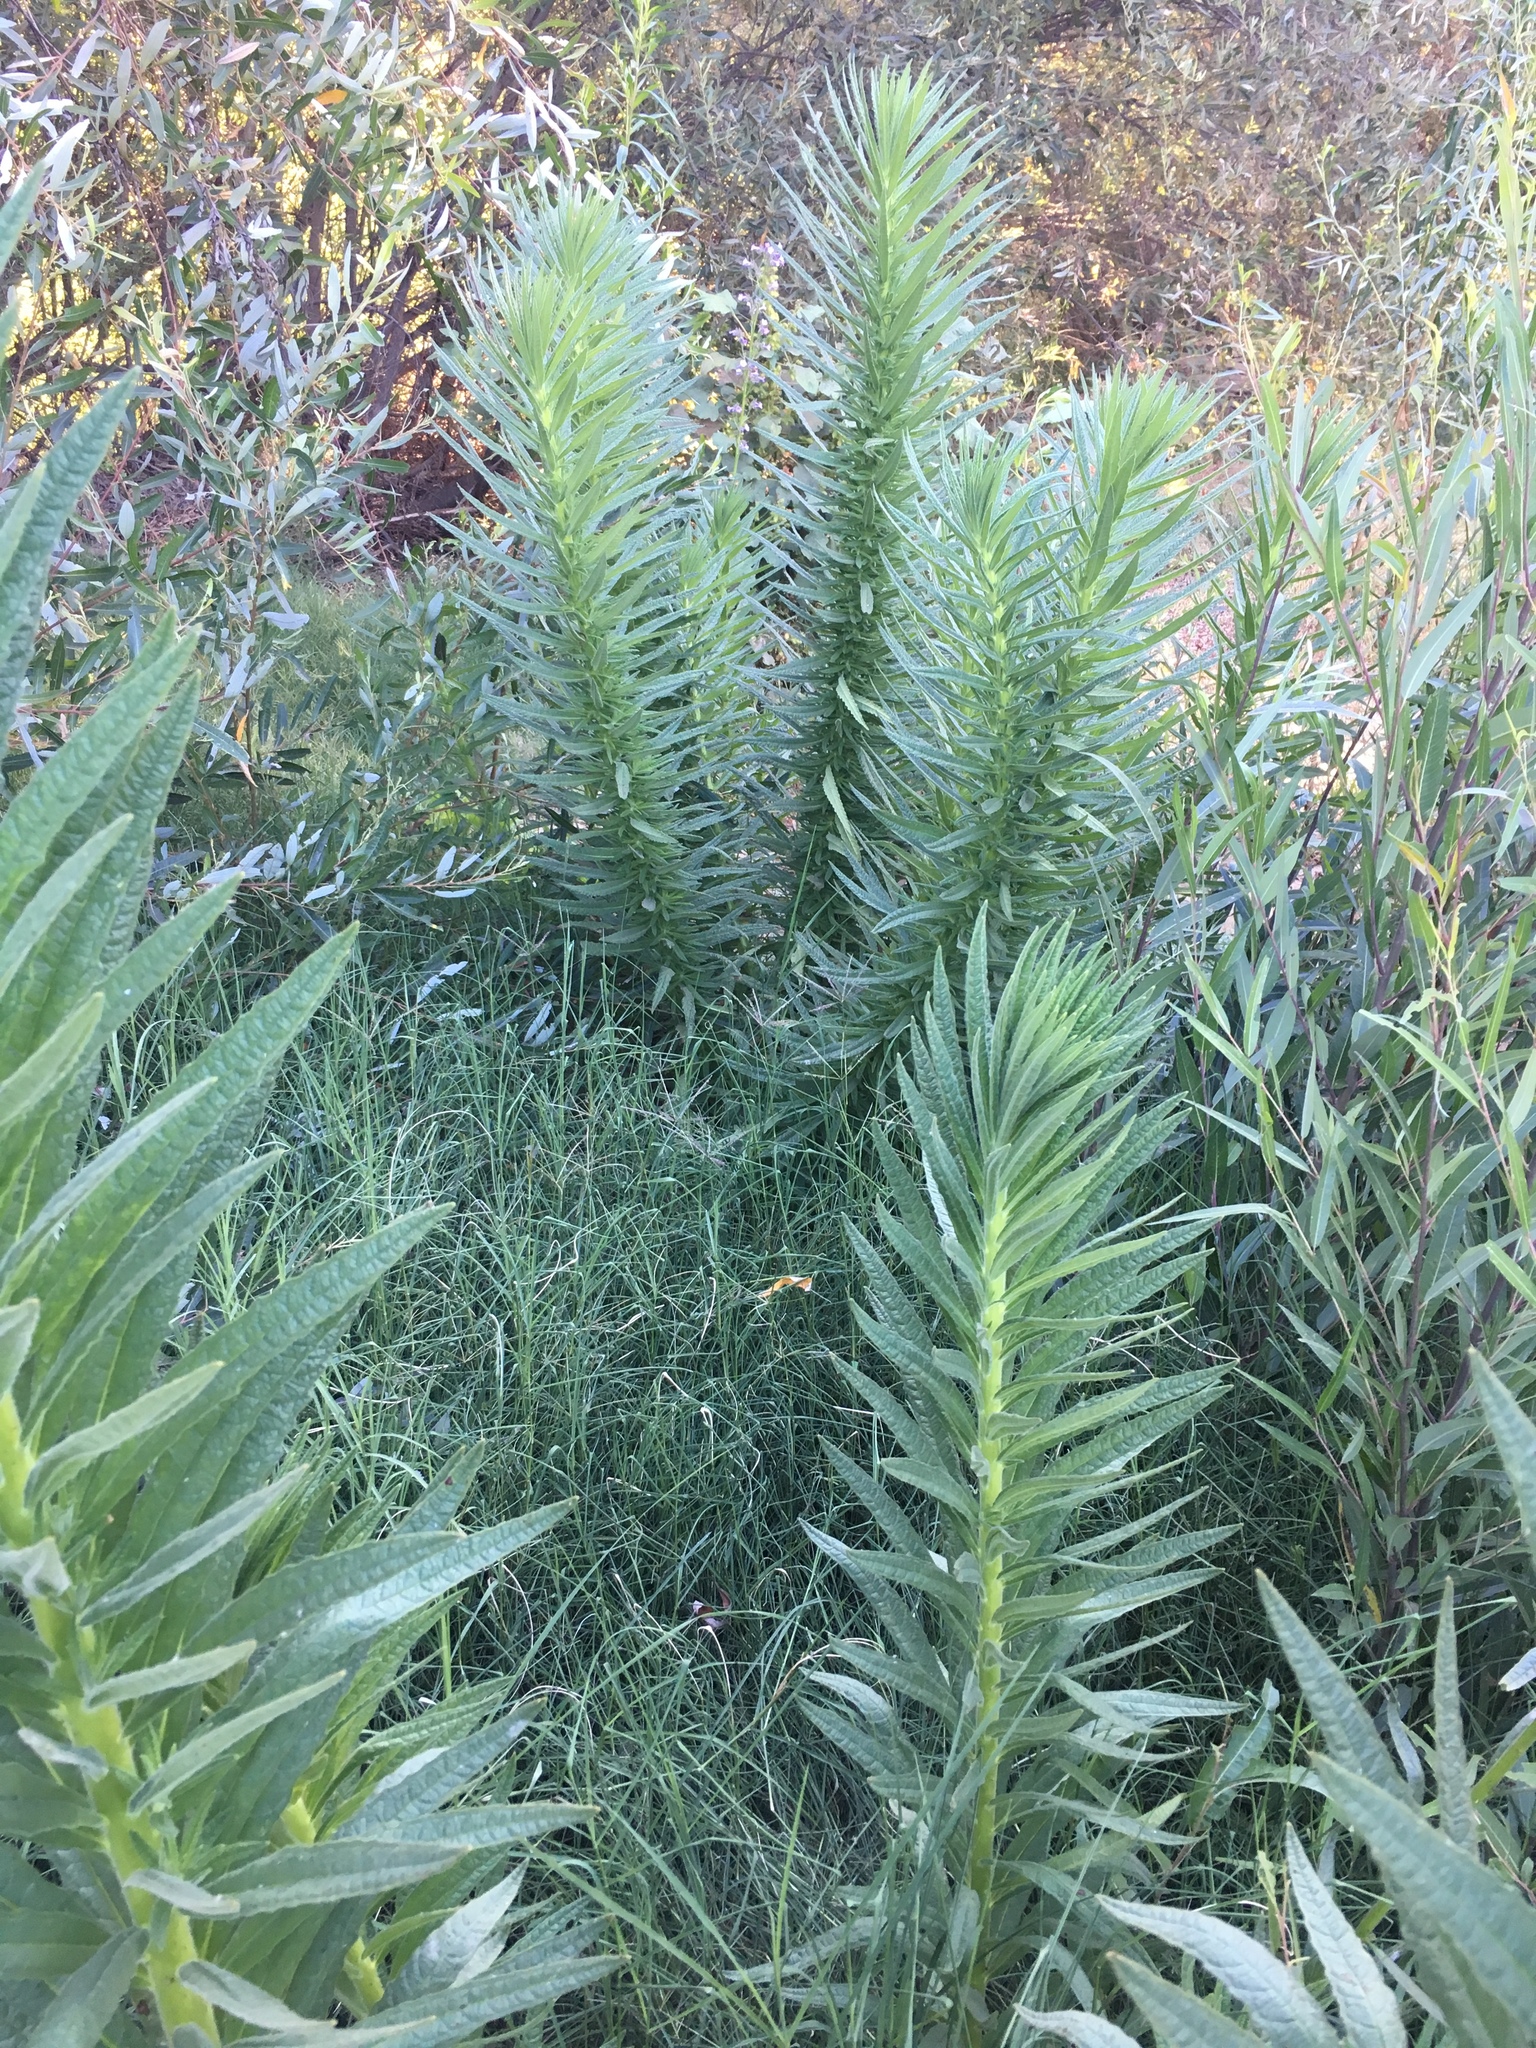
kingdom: Plantae
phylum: Tracheophyta
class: Magnoliopsida
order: Boraginales
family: Namaceae
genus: Turricula
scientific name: Turricula parryi
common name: Poodle-dog-bush
